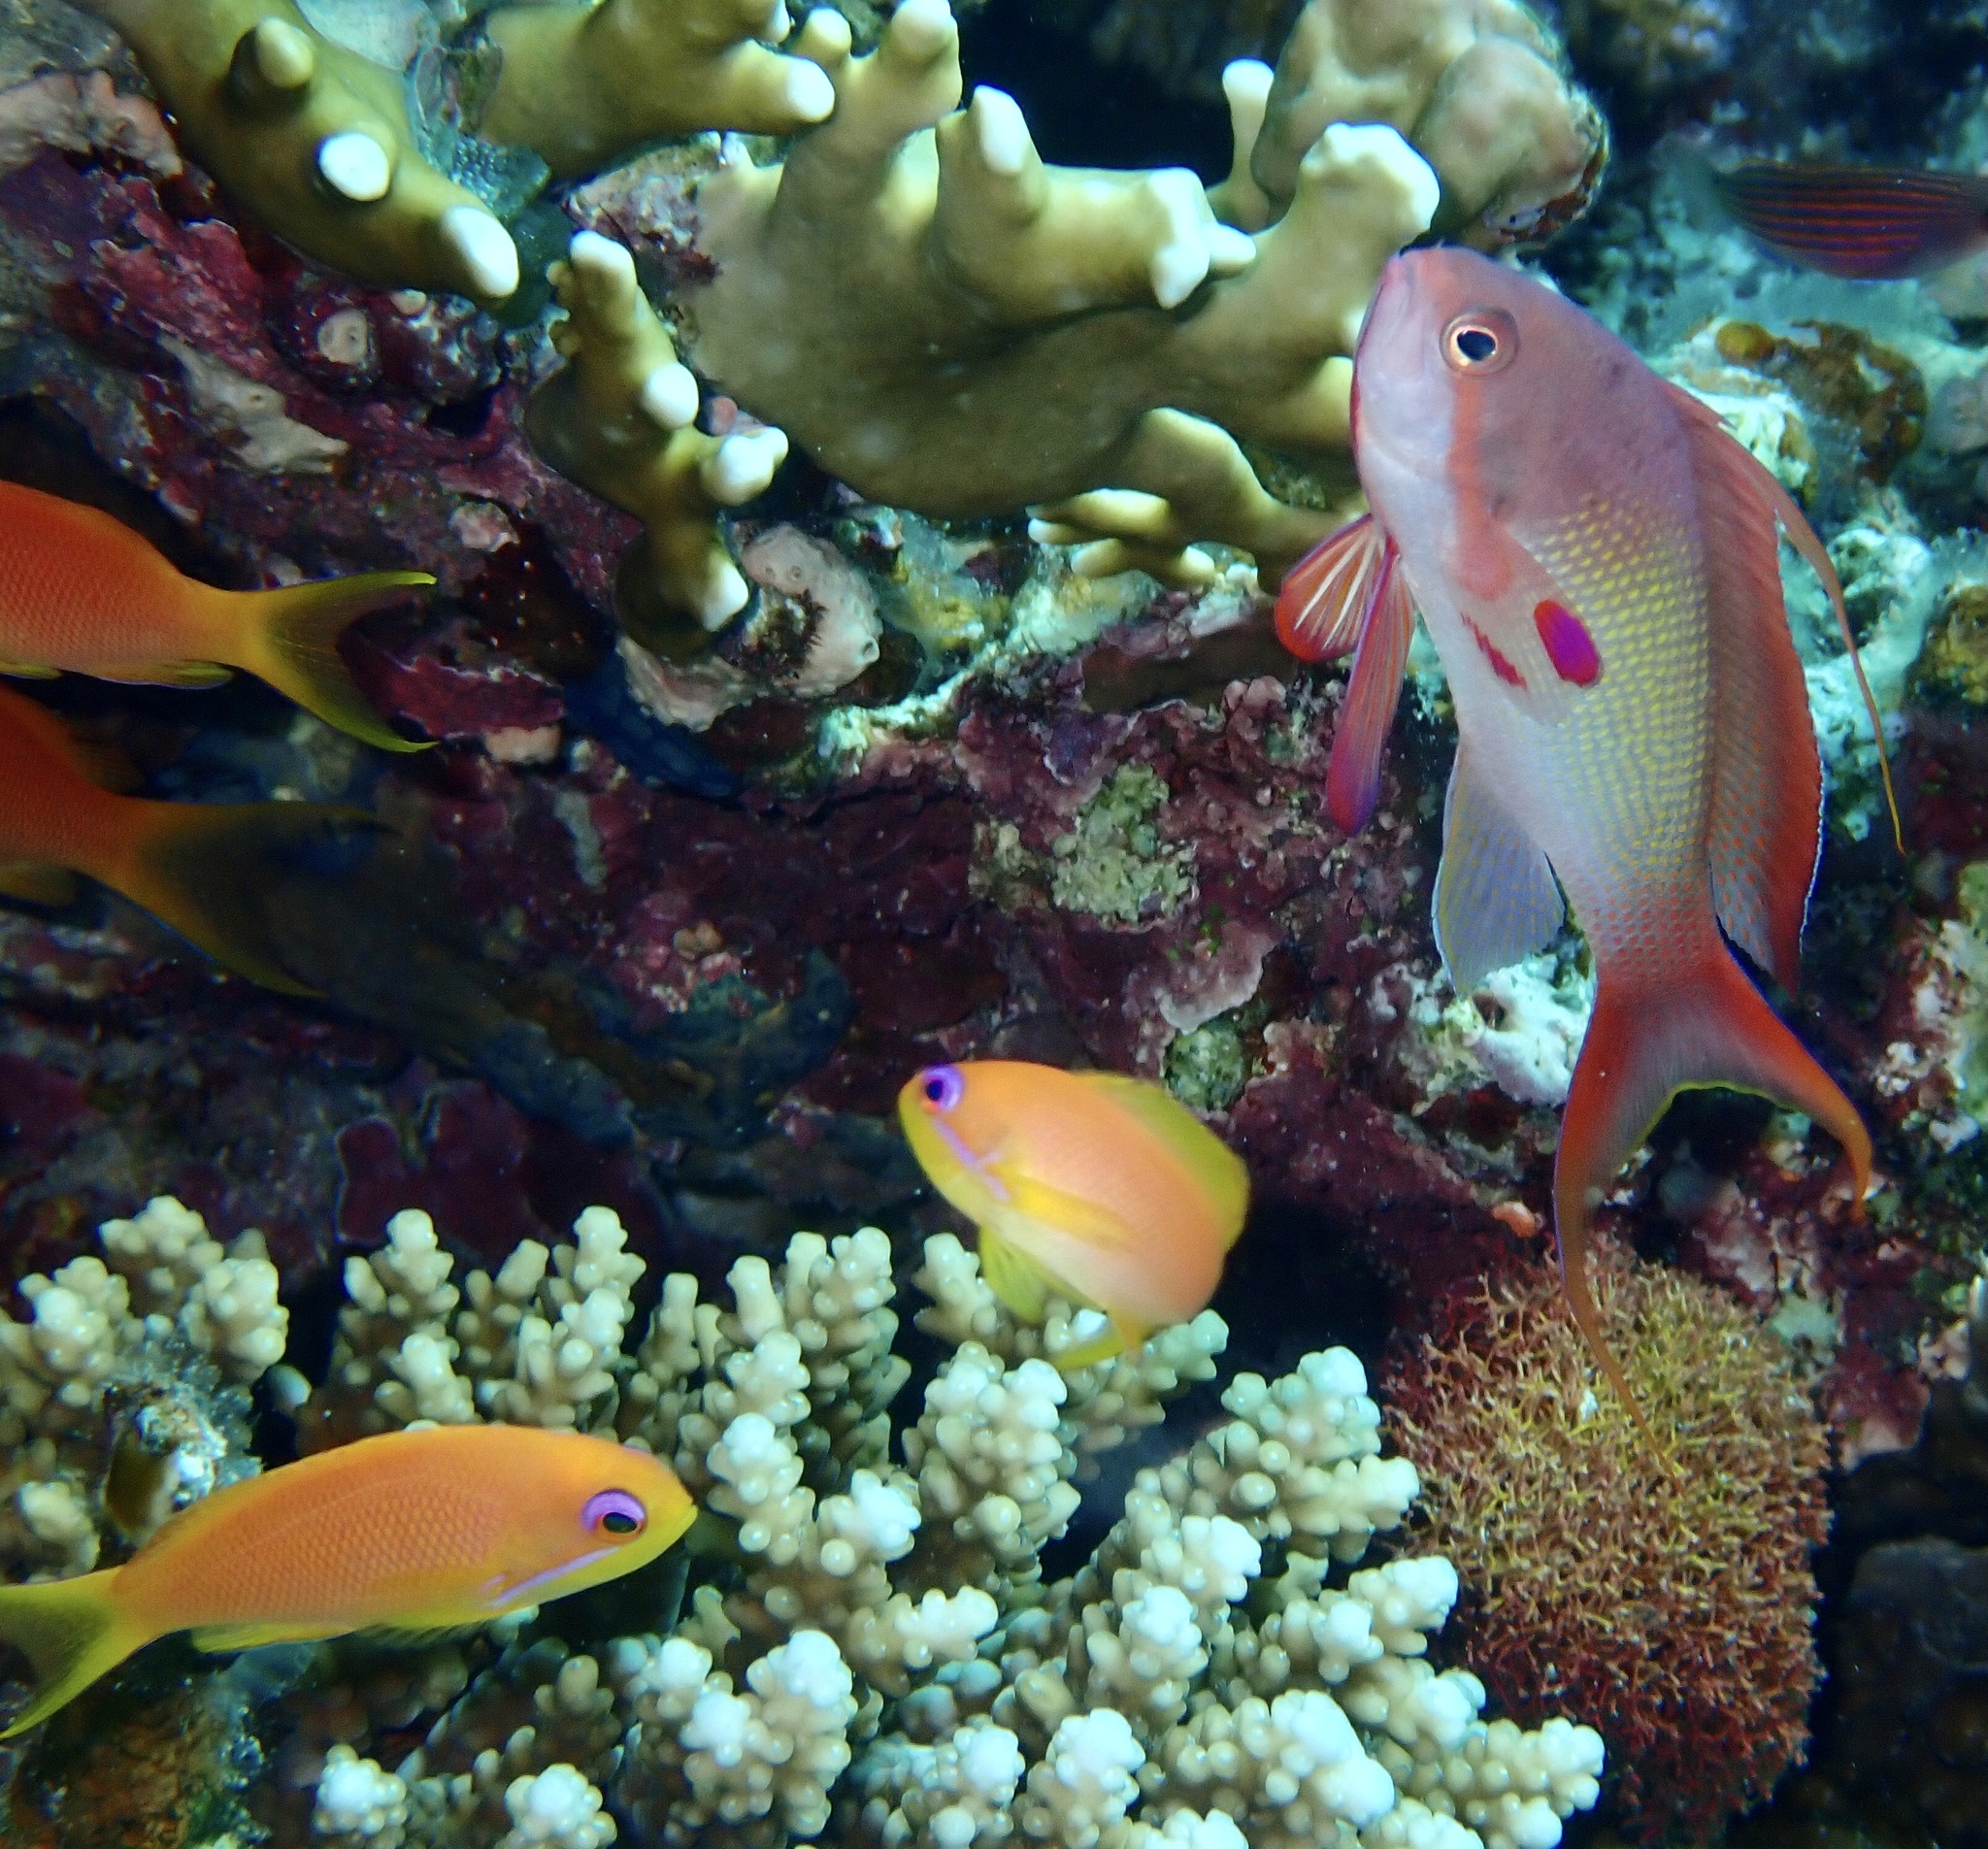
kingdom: Animalia
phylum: Chordata
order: Perciformes
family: Serranidae
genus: Pseudanthias
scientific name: Pseudanthias squamipinnis
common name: Scalefin anthias
